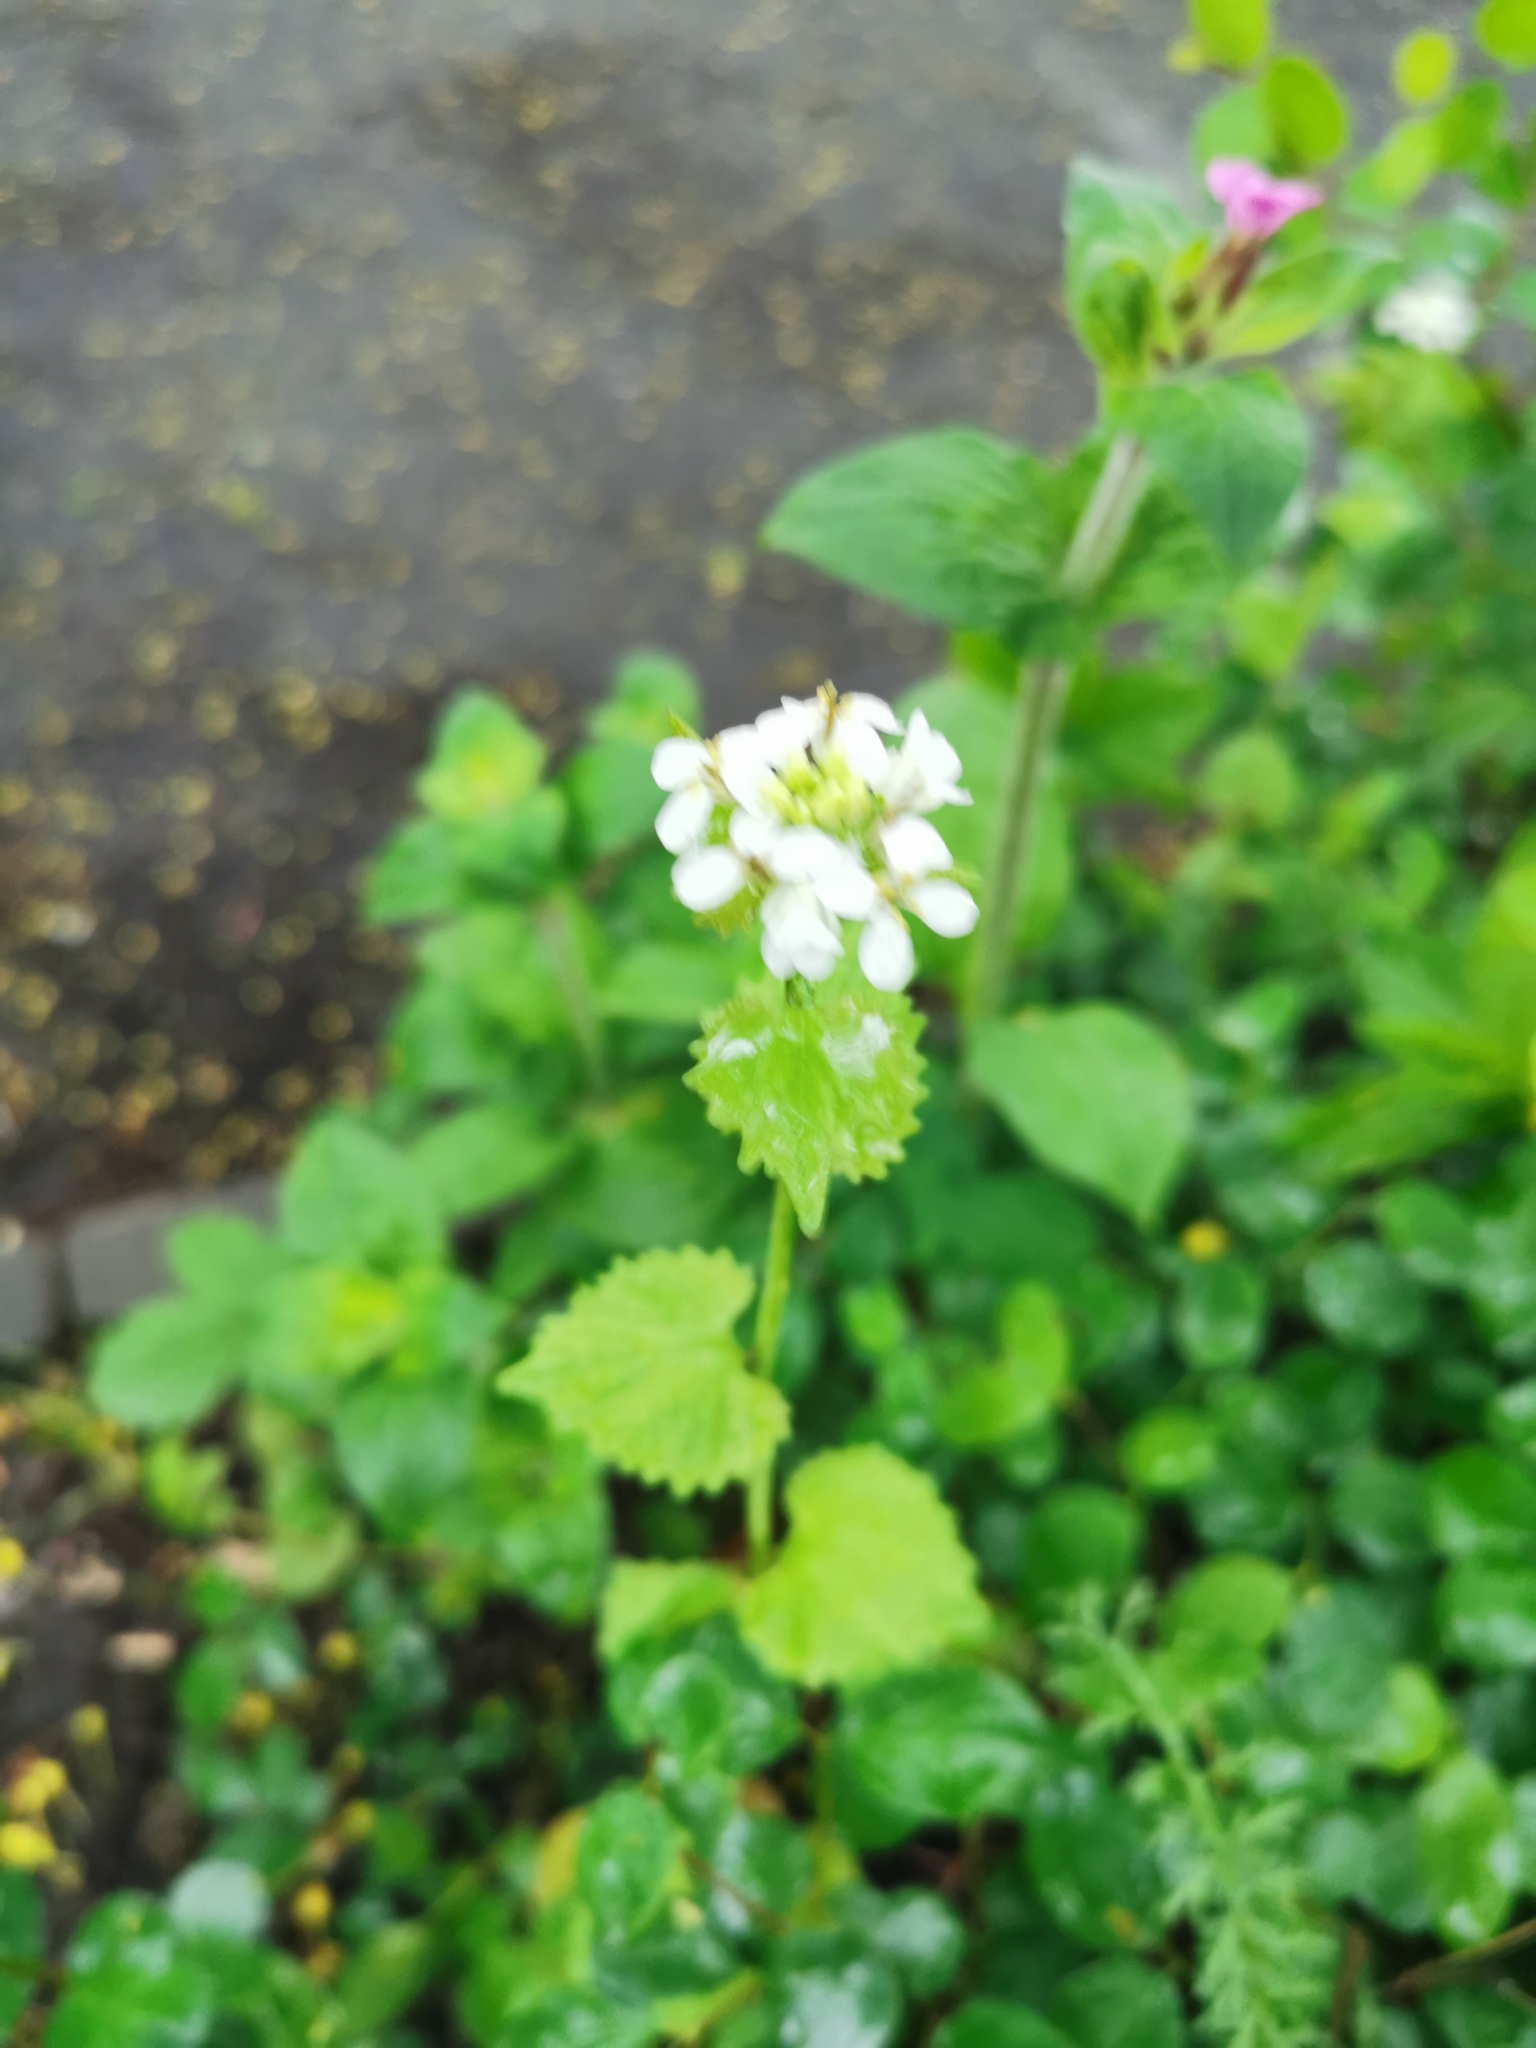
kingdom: Plantae
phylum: Tracheophyta
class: Magnoliopsida
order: Brassicales
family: Brassicaceae
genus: Alliaria
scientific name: Alliaria petiolata
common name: Garlic mustard
